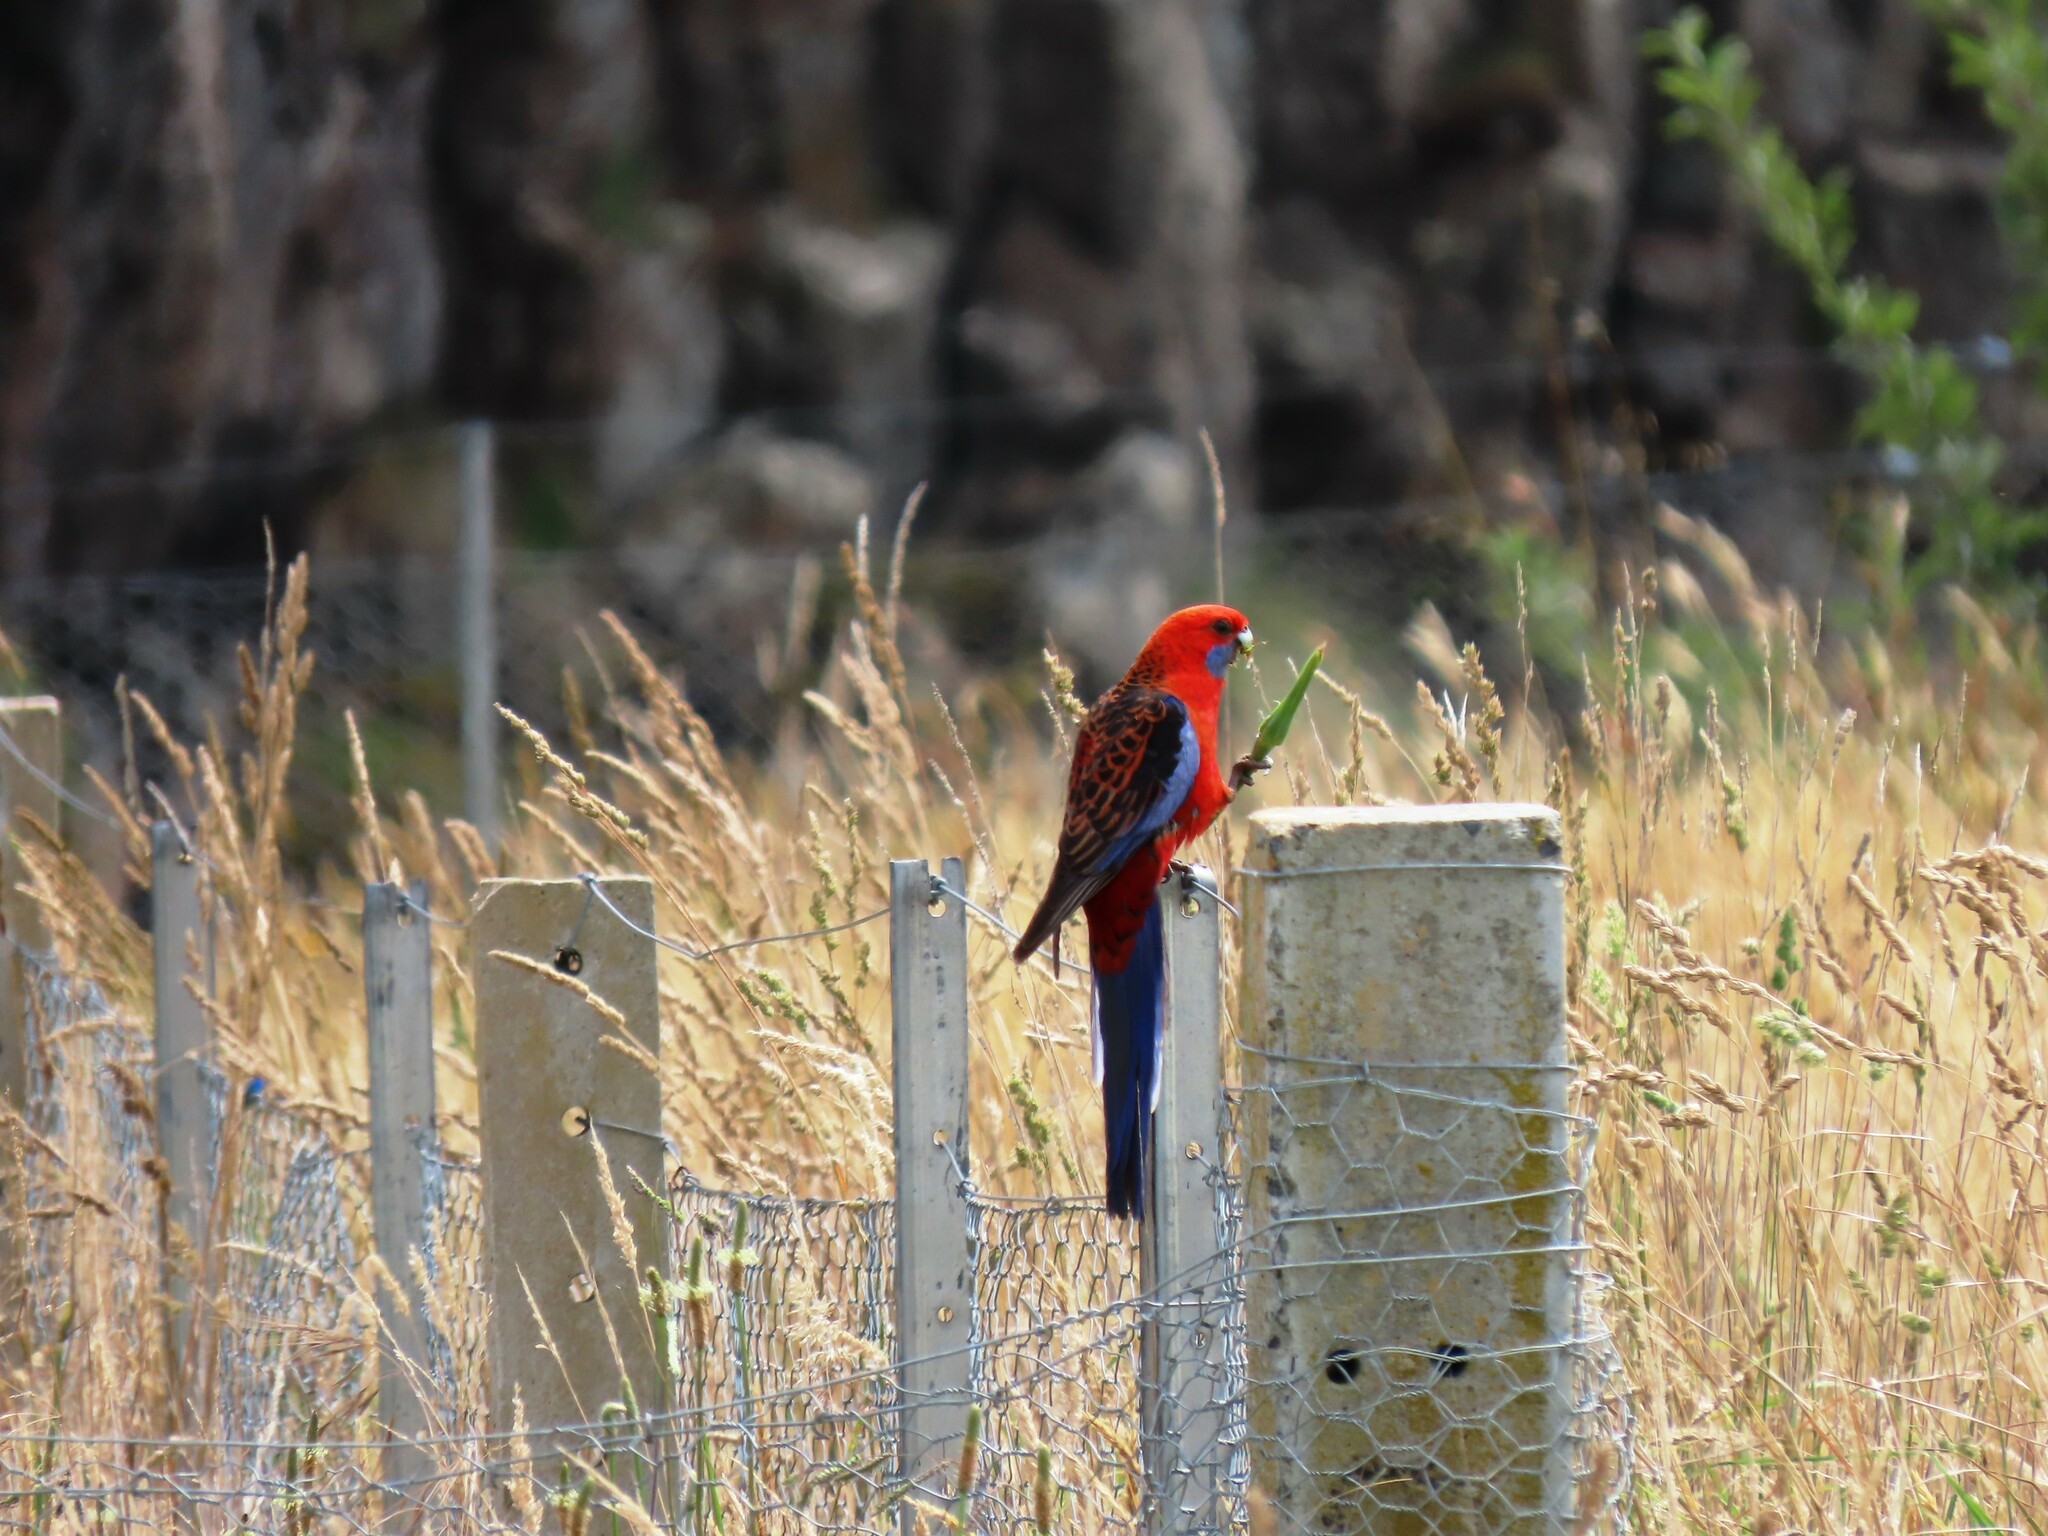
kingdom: Animalia
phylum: Chordata
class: Aves
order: Psittaciformes
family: Psittacidae
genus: Platycercus
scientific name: Platycercus elegans
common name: Crimson rosella
